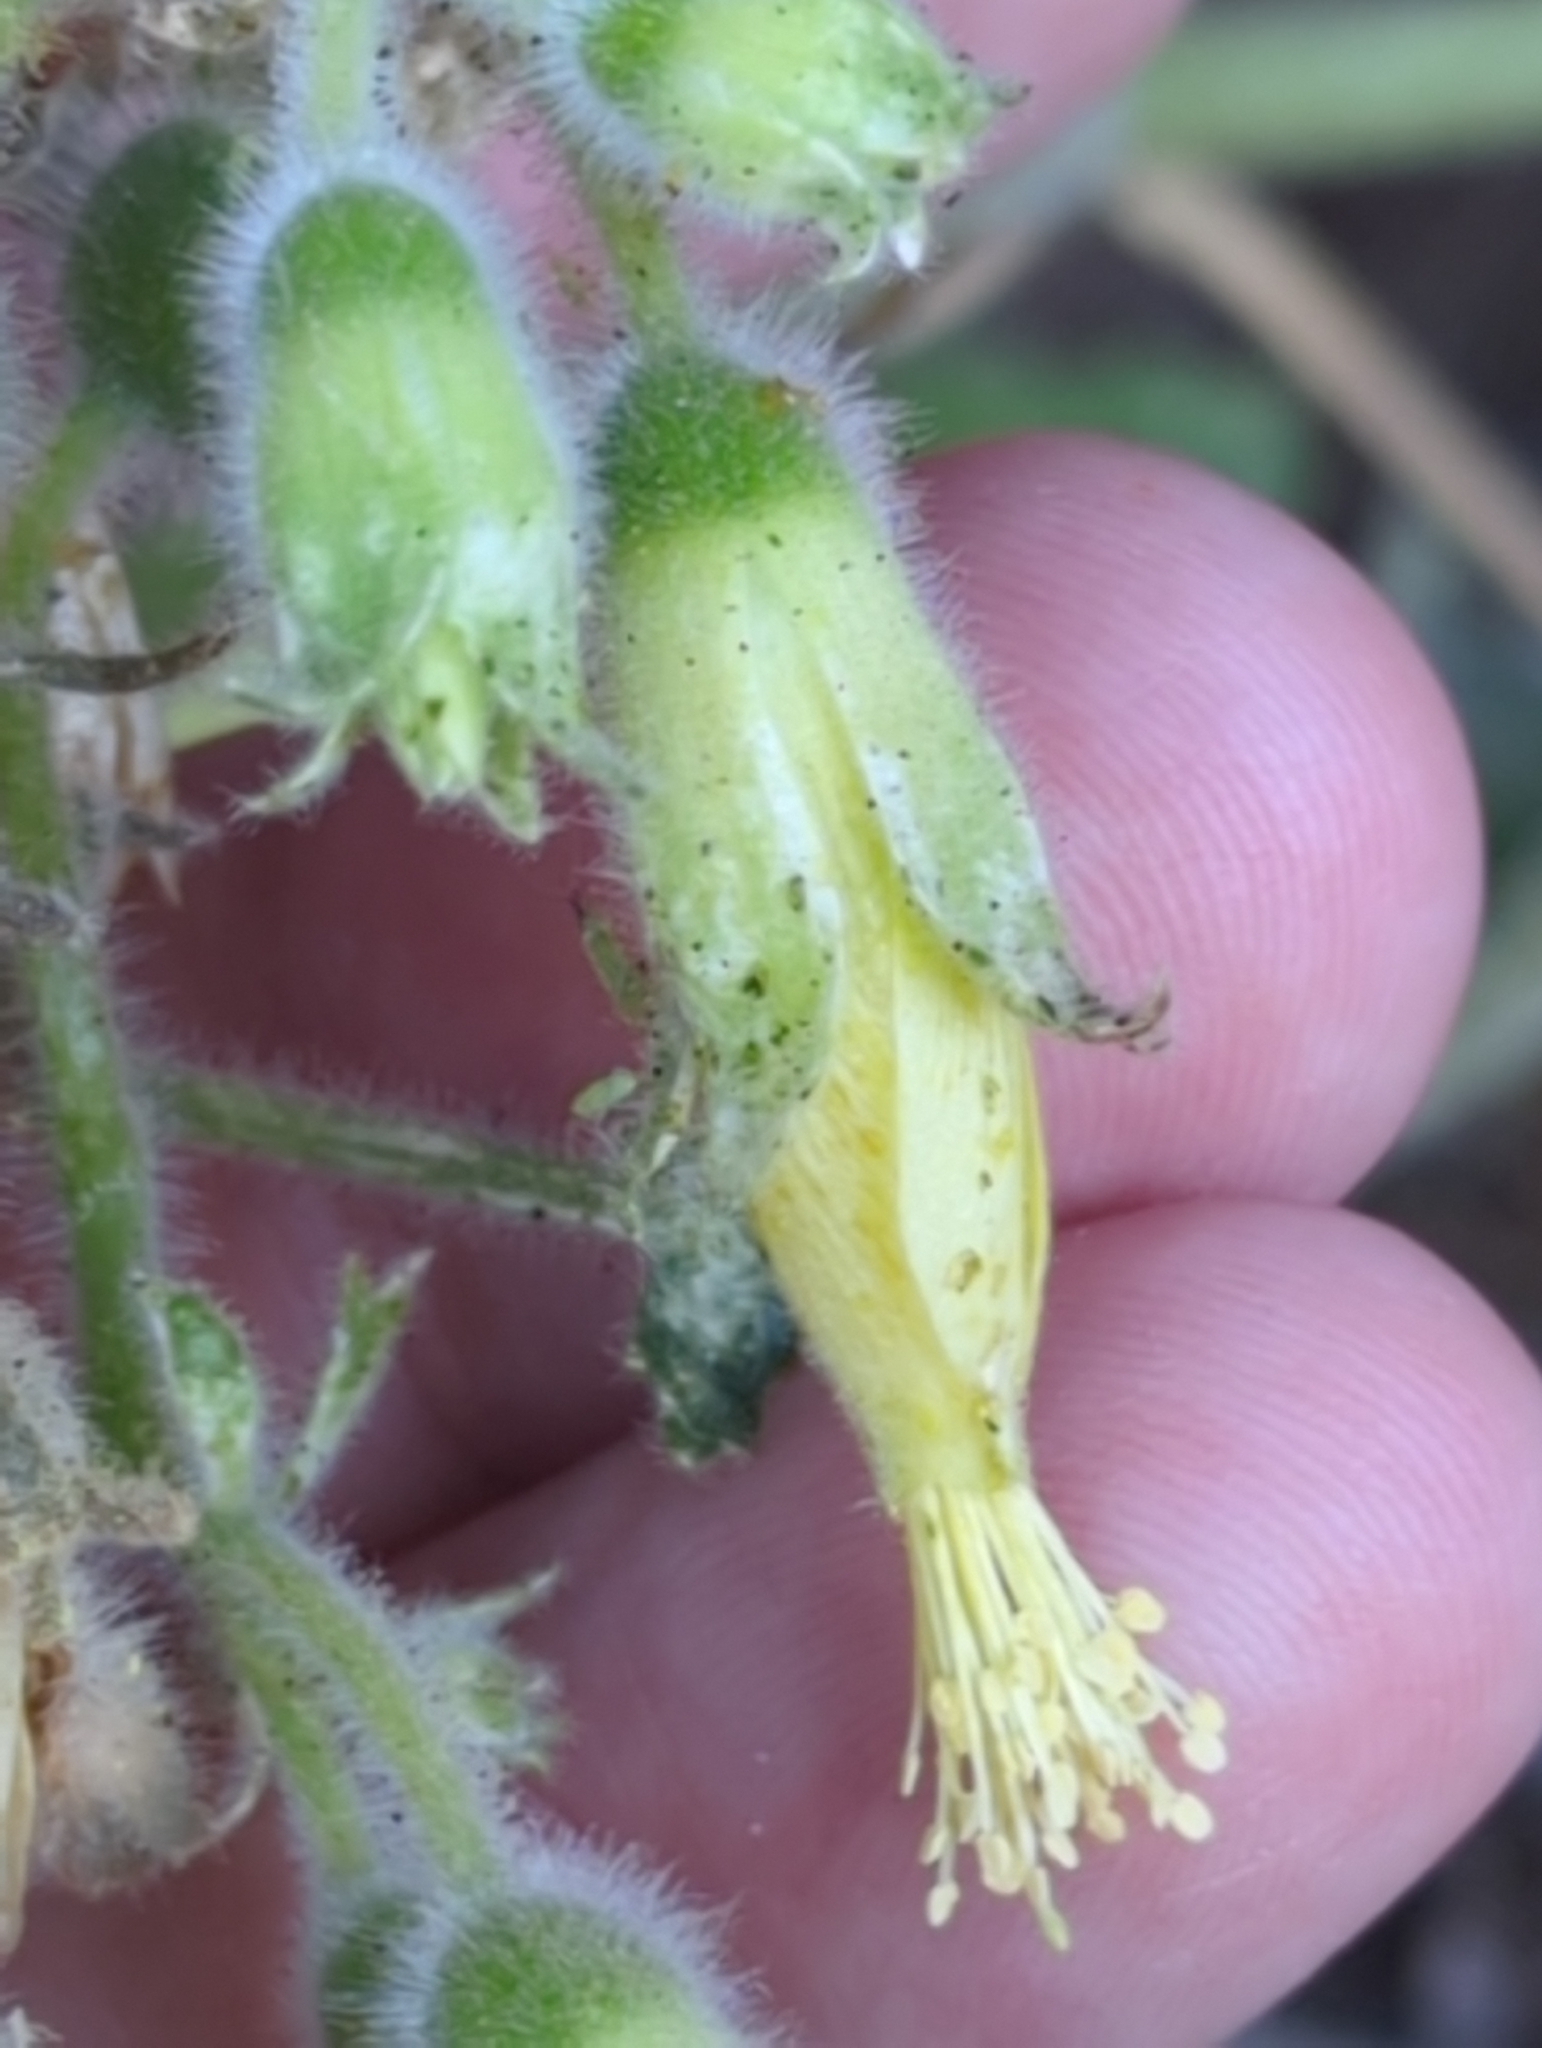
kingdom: Plantae
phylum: Tracheophyta
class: Magnoliopsida
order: Cornales
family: Loasaceae
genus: Eucnide
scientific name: Eucnide cordata
